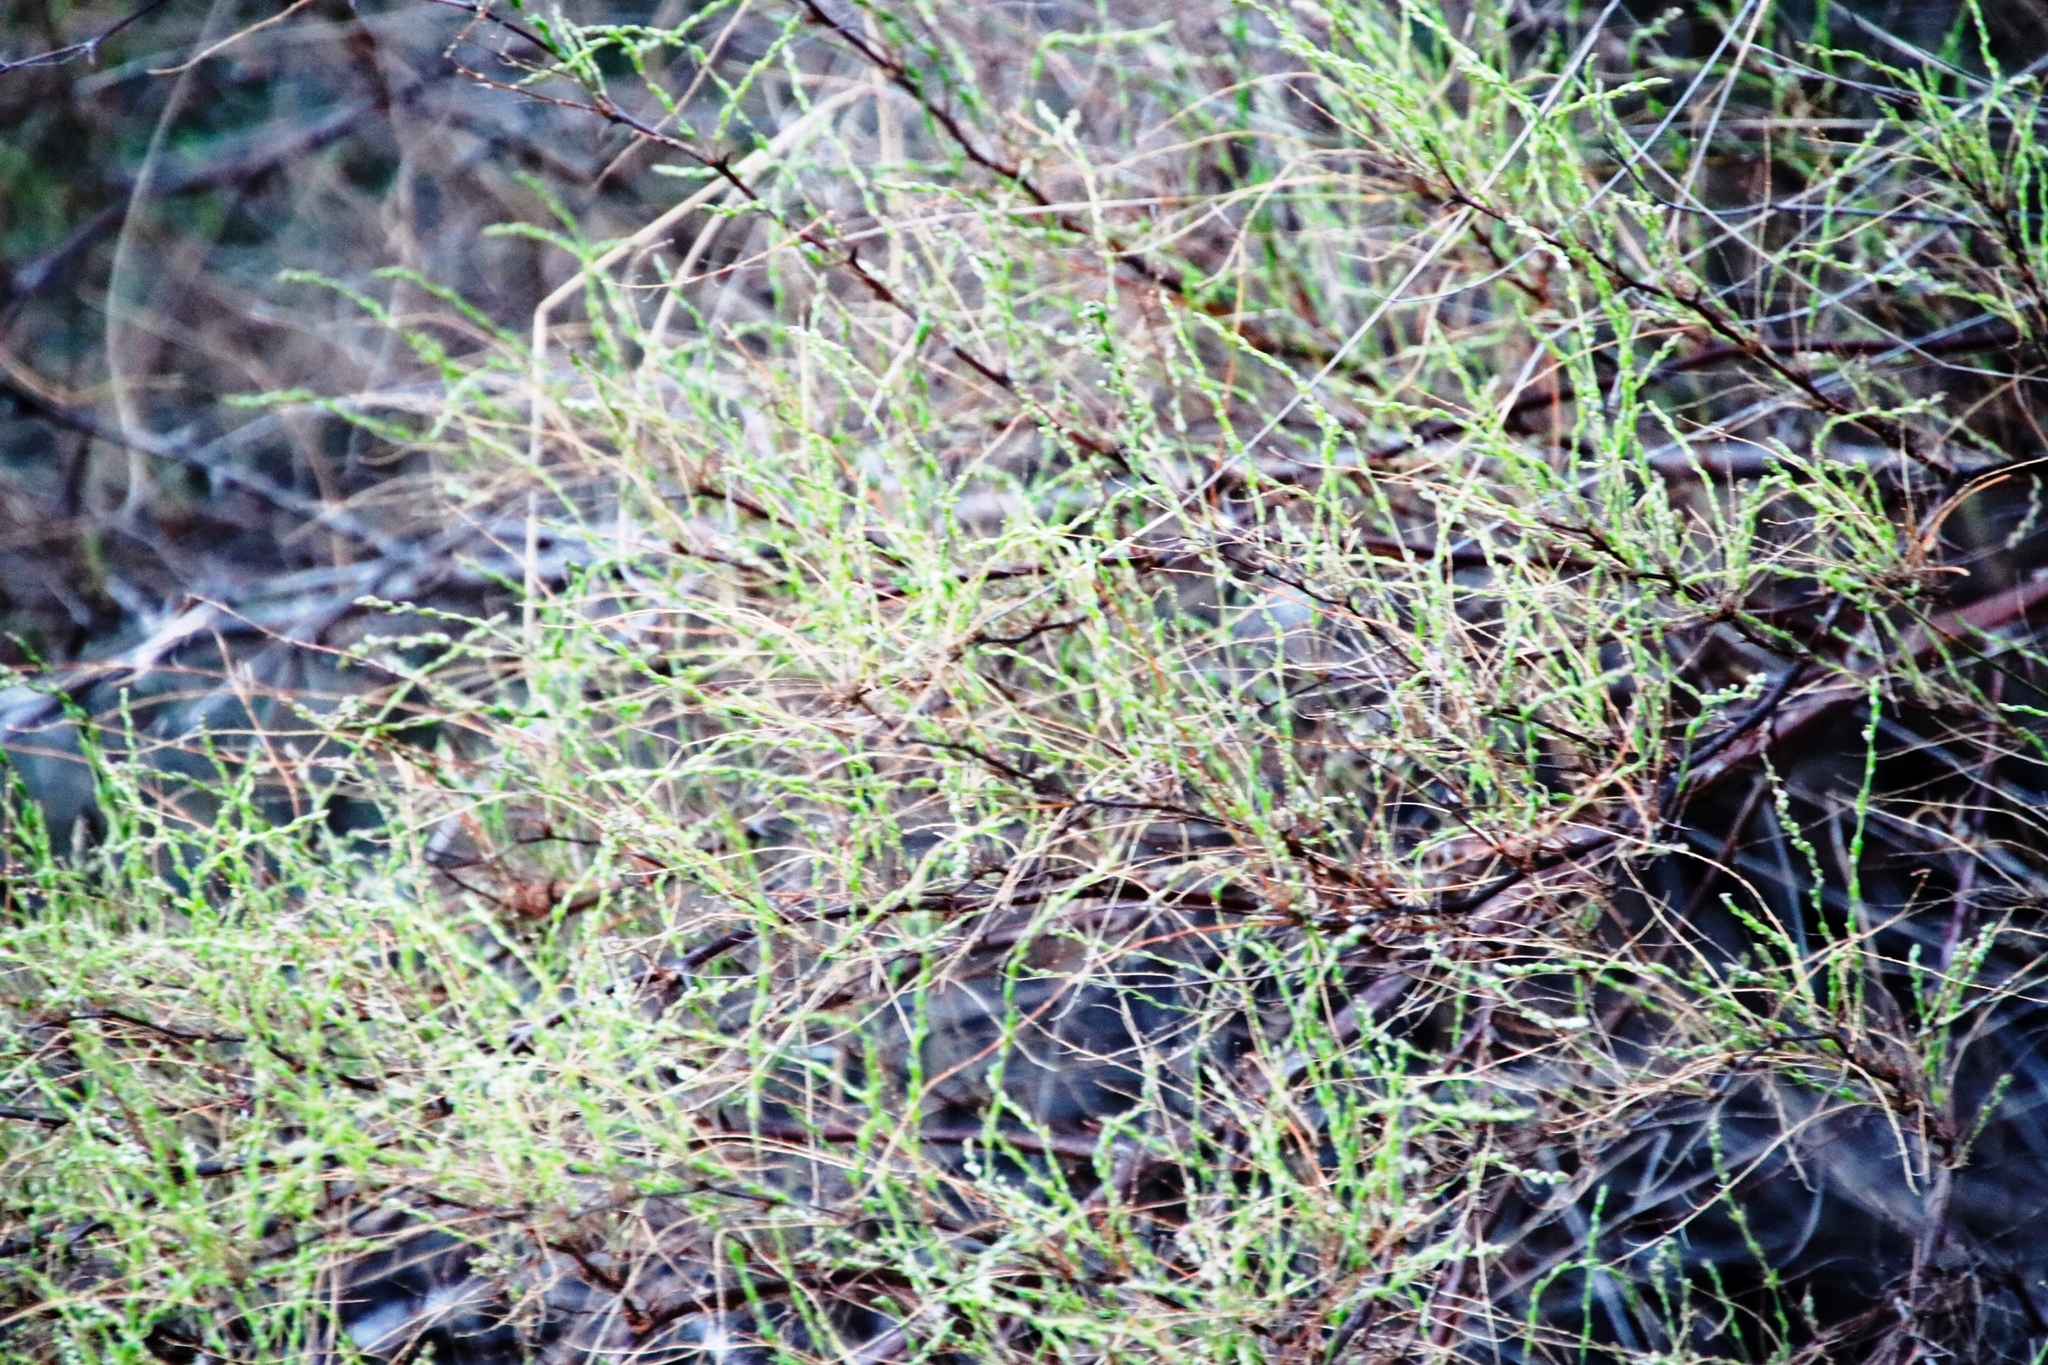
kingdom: Plantae
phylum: Tracheophyta
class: Liliopsida
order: Asparagales
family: Asparagaceae
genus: Asparagus
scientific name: Asparagus rubicundus
